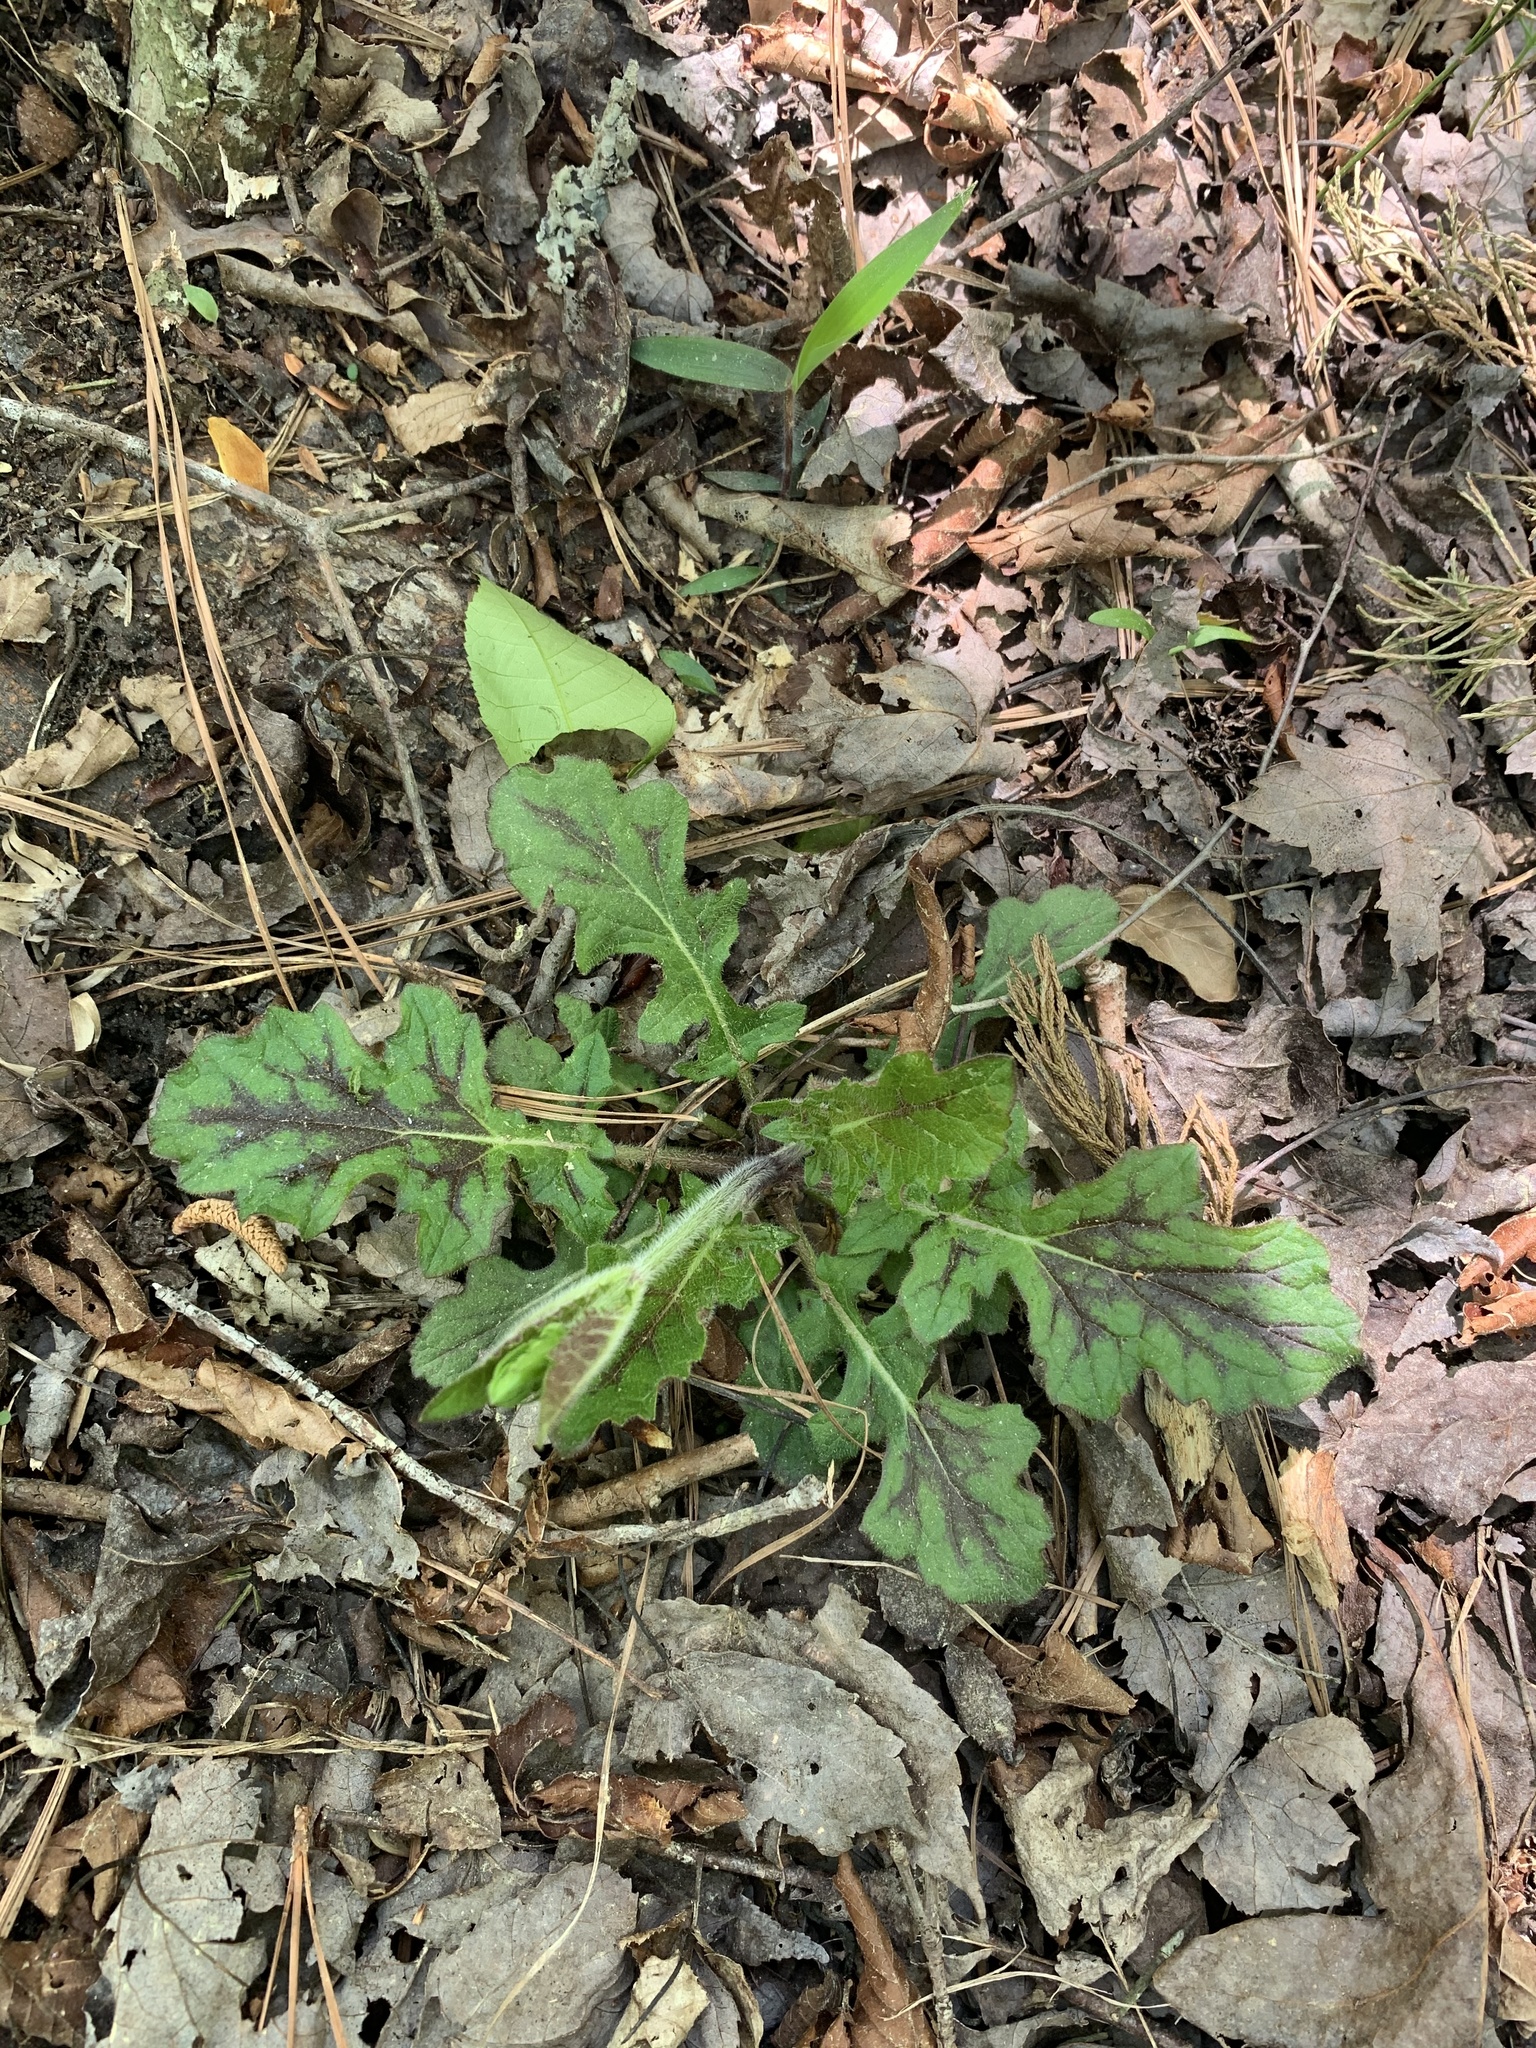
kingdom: Plantae
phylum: Tracheophyta
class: Magnoliopsida
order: Lamiales
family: Lamiaceae
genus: Salvia
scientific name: Salvia lyrata
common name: Cancerweed
